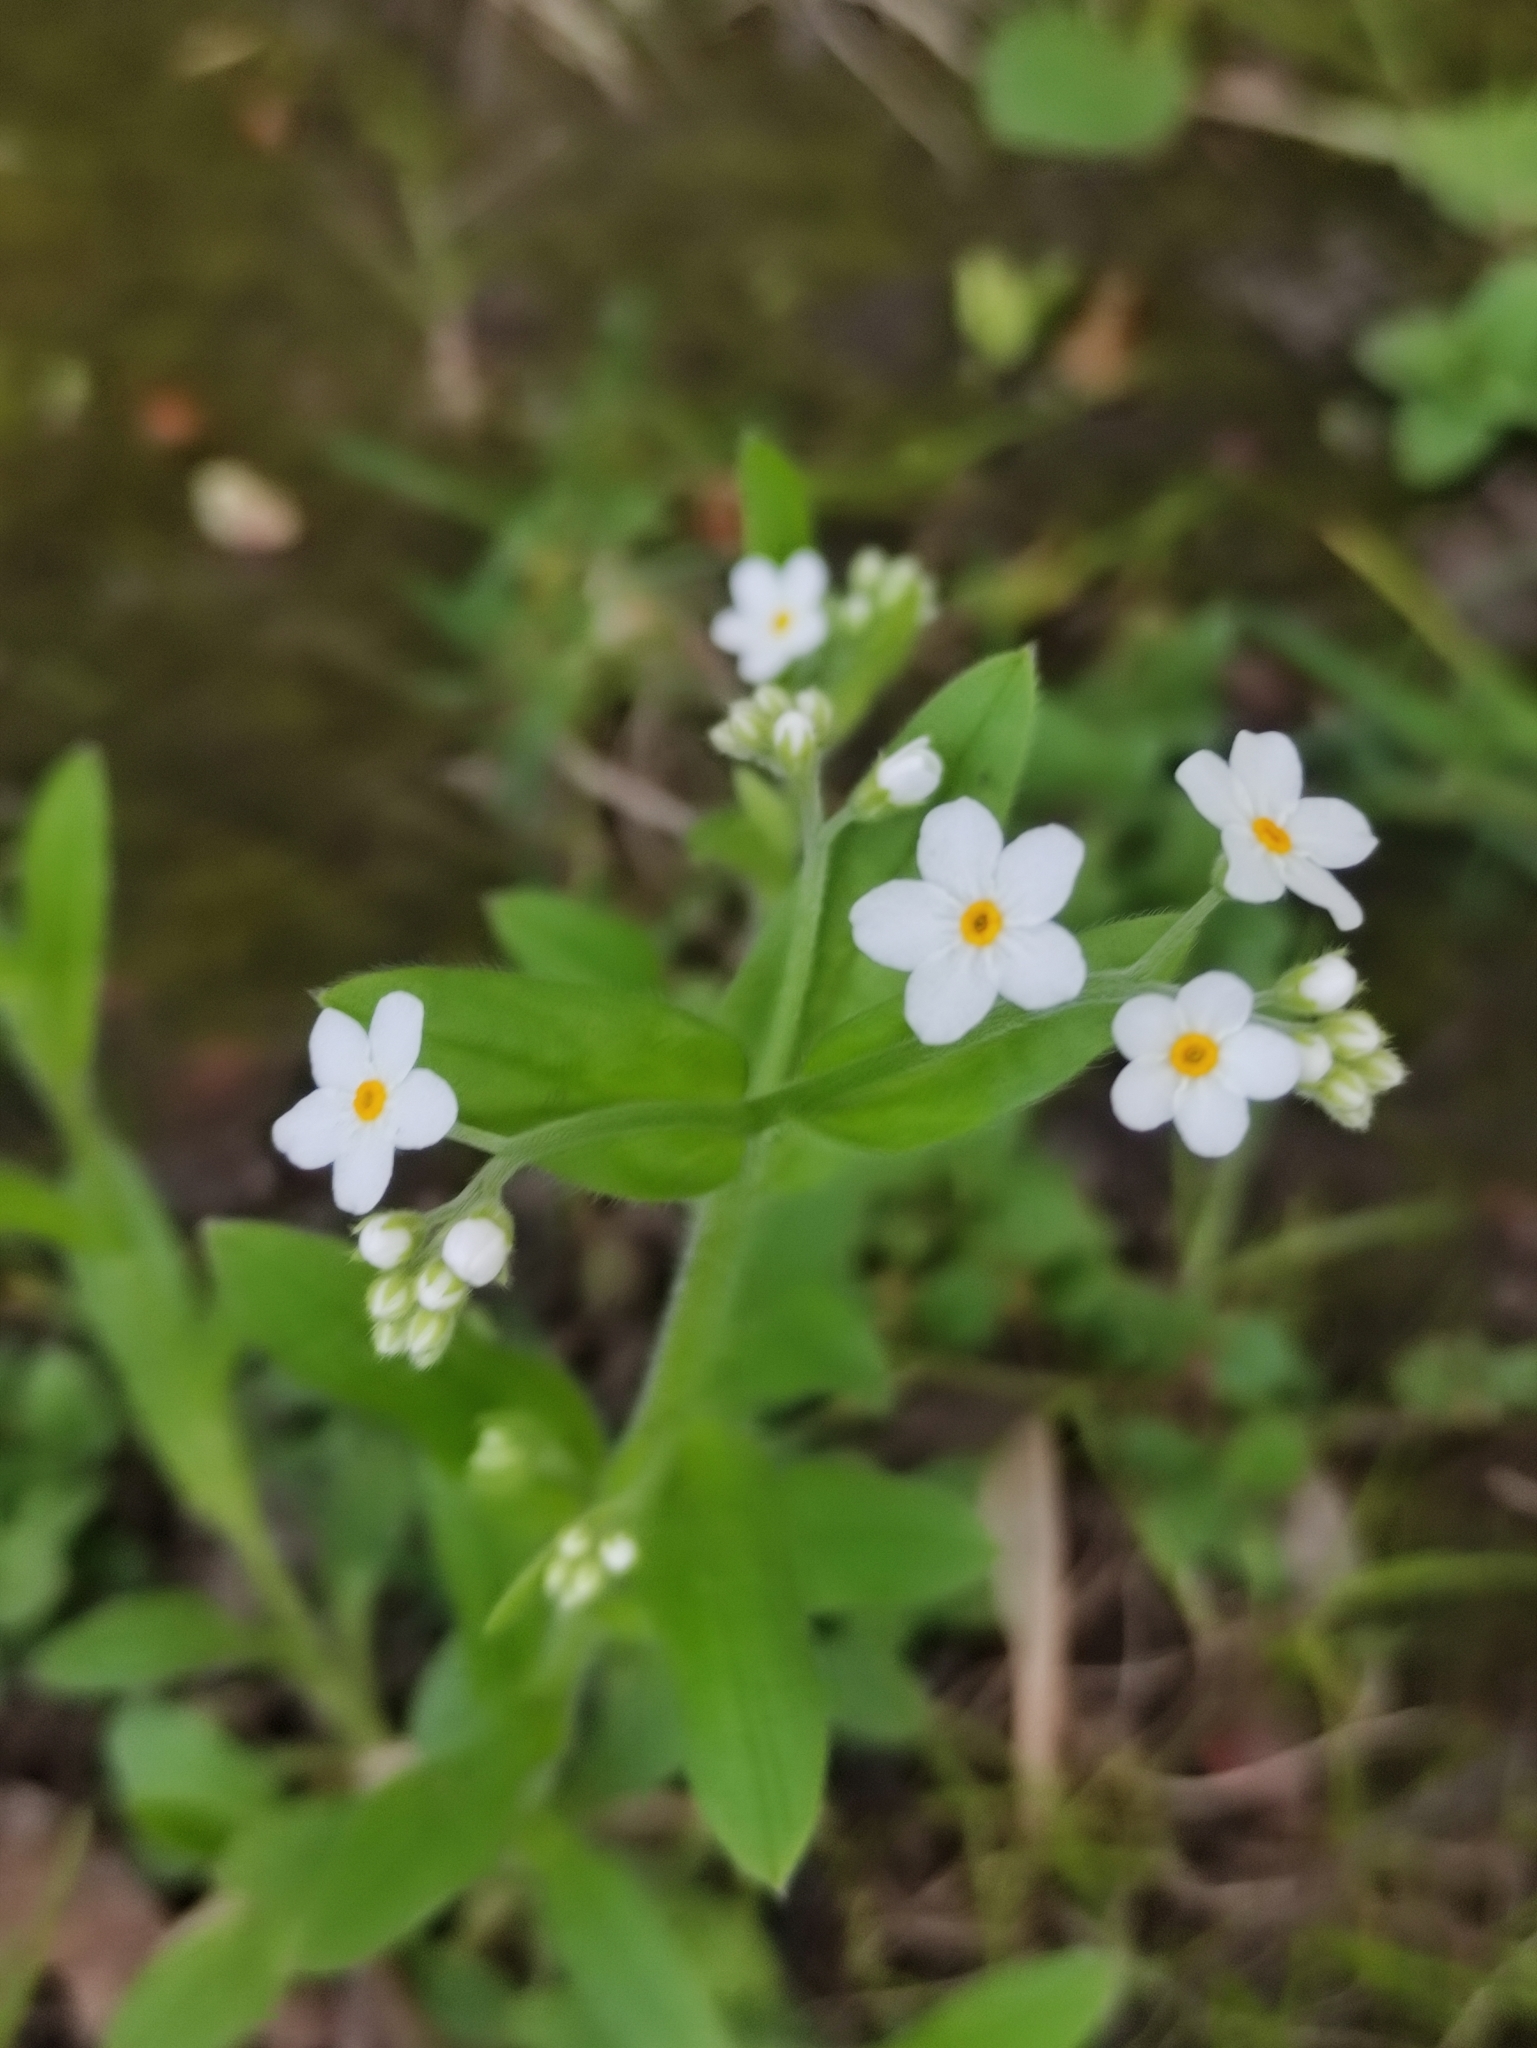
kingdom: Plantae
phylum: Tracheophyta
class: Magnoliopsida
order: Boraginales
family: Boraginaceae
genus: Myosotis
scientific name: Myosotis sylvatica
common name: Wood forget-me-not
